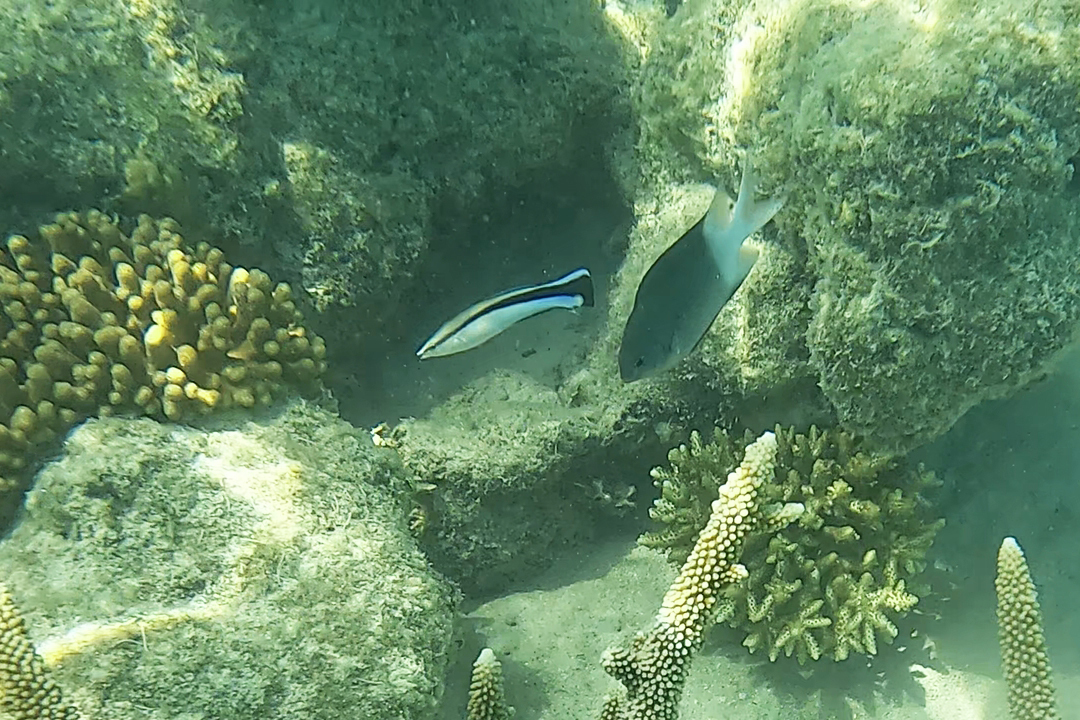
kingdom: Animalia
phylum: Chordata
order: Perciformes
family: Labridae
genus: Labroides
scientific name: Labroides dimidiatus
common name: Blue diesel wrasse
